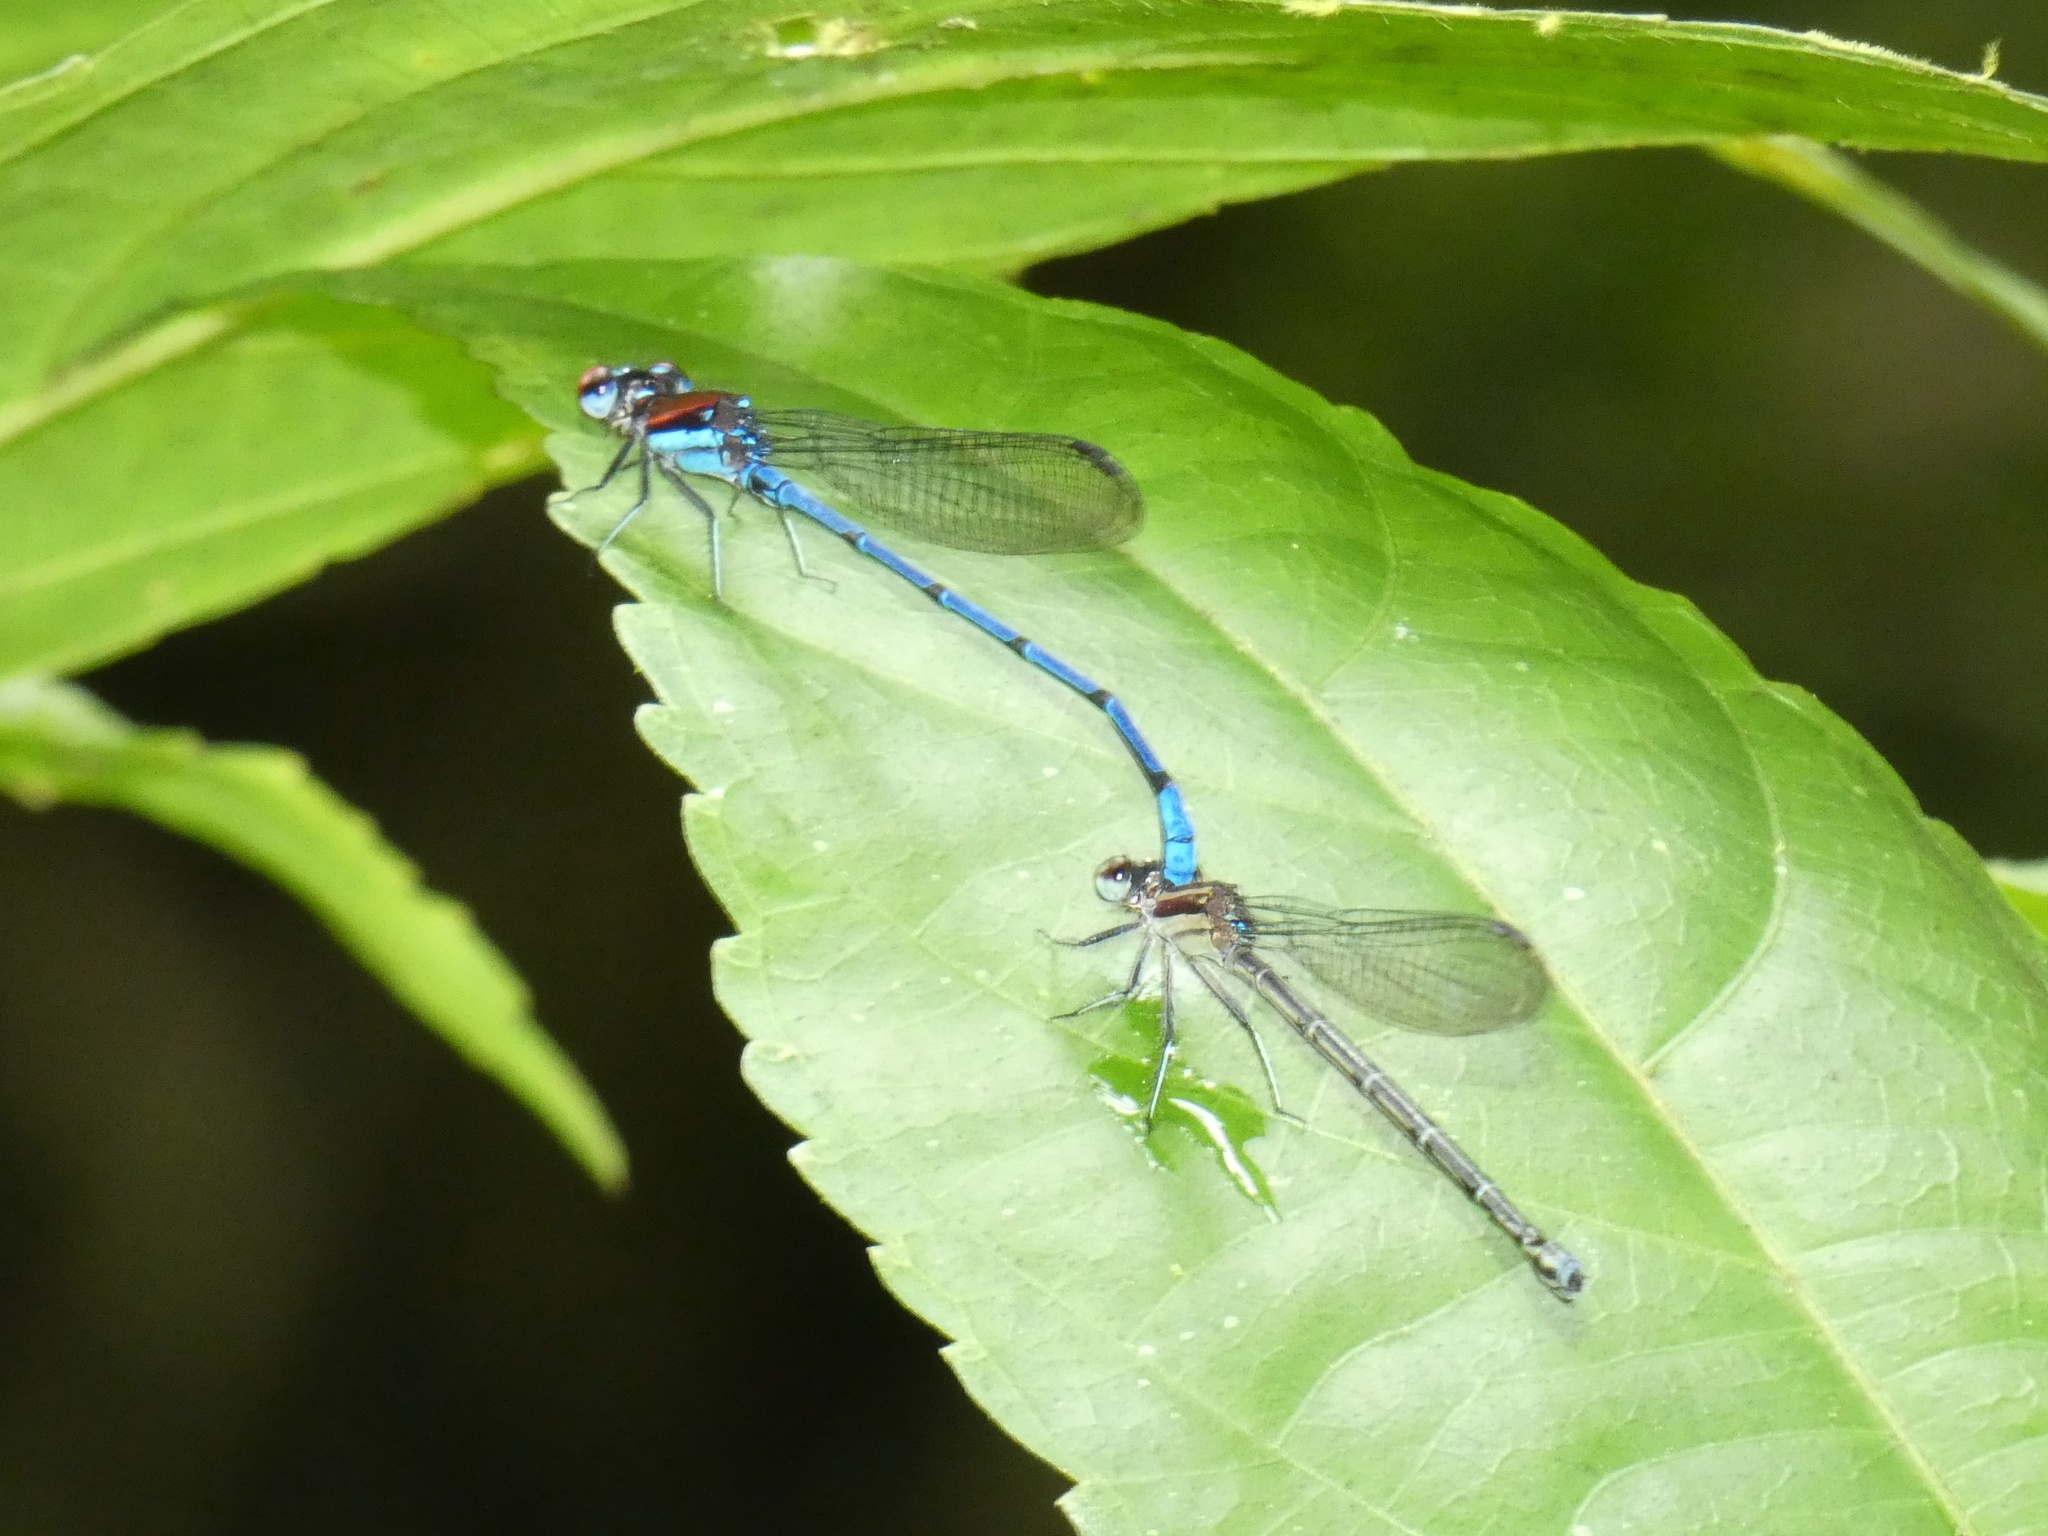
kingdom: Animalia
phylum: Arthropoda
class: Insecta
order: Odonata
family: Coenagrionidae
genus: Argia
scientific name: Argia cupraurea
